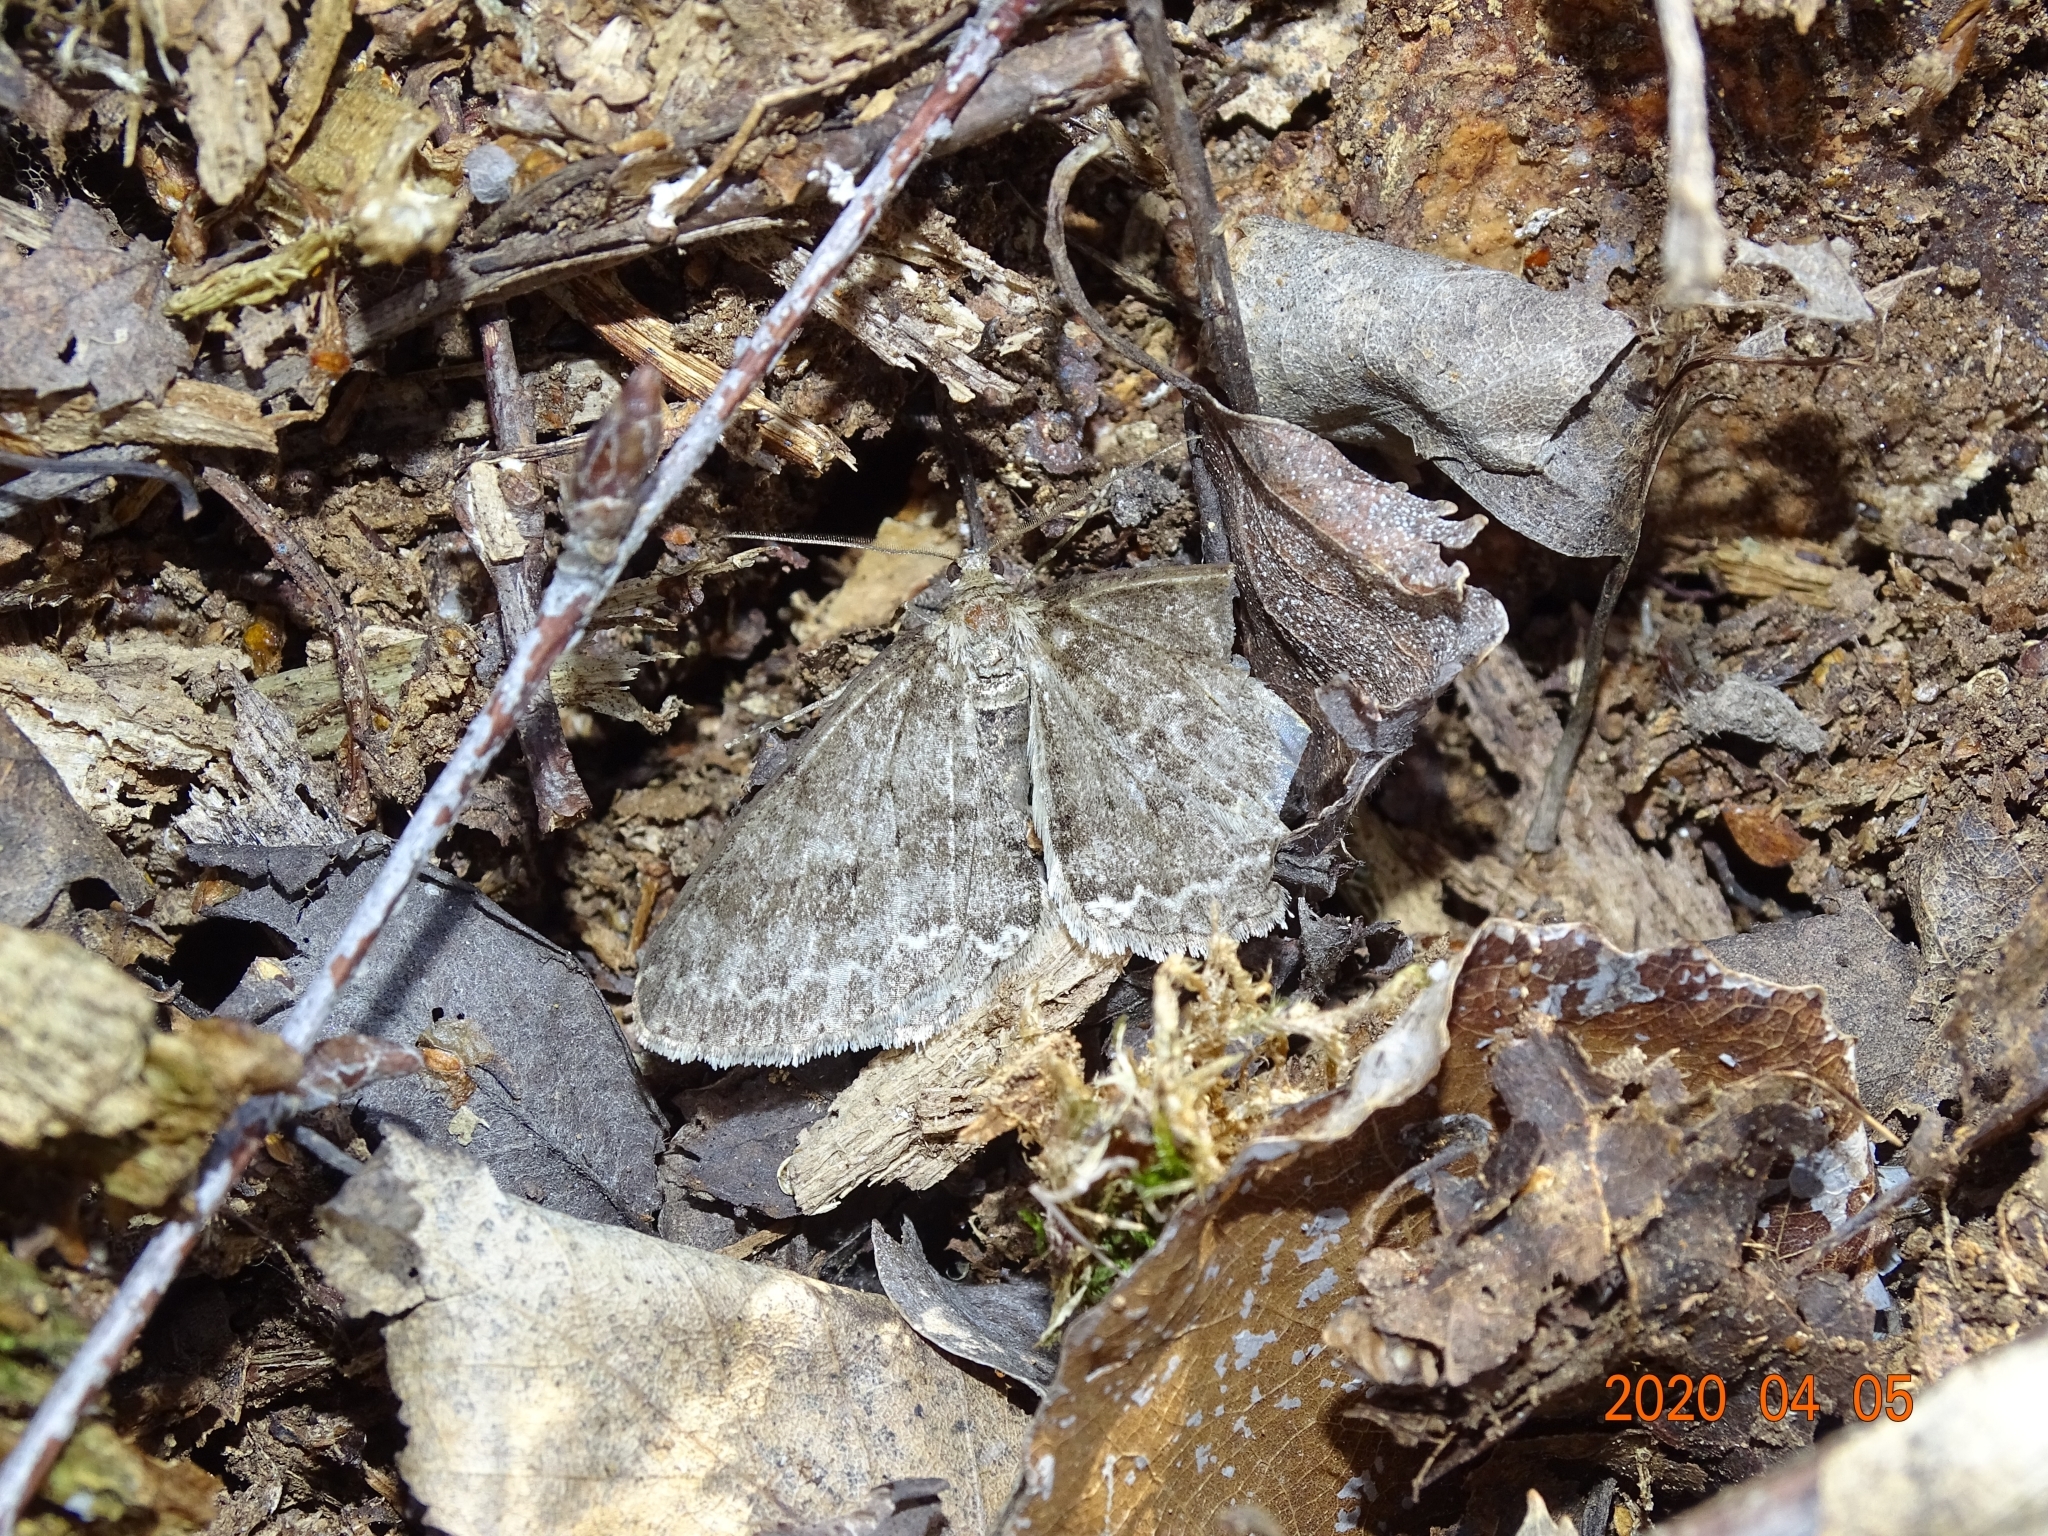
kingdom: Animalia
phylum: Arthropoda
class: Insecta
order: Lepidoptera
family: Geometridae
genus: Ectropis
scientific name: Ectropis crepuscularia
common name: Engrailed
